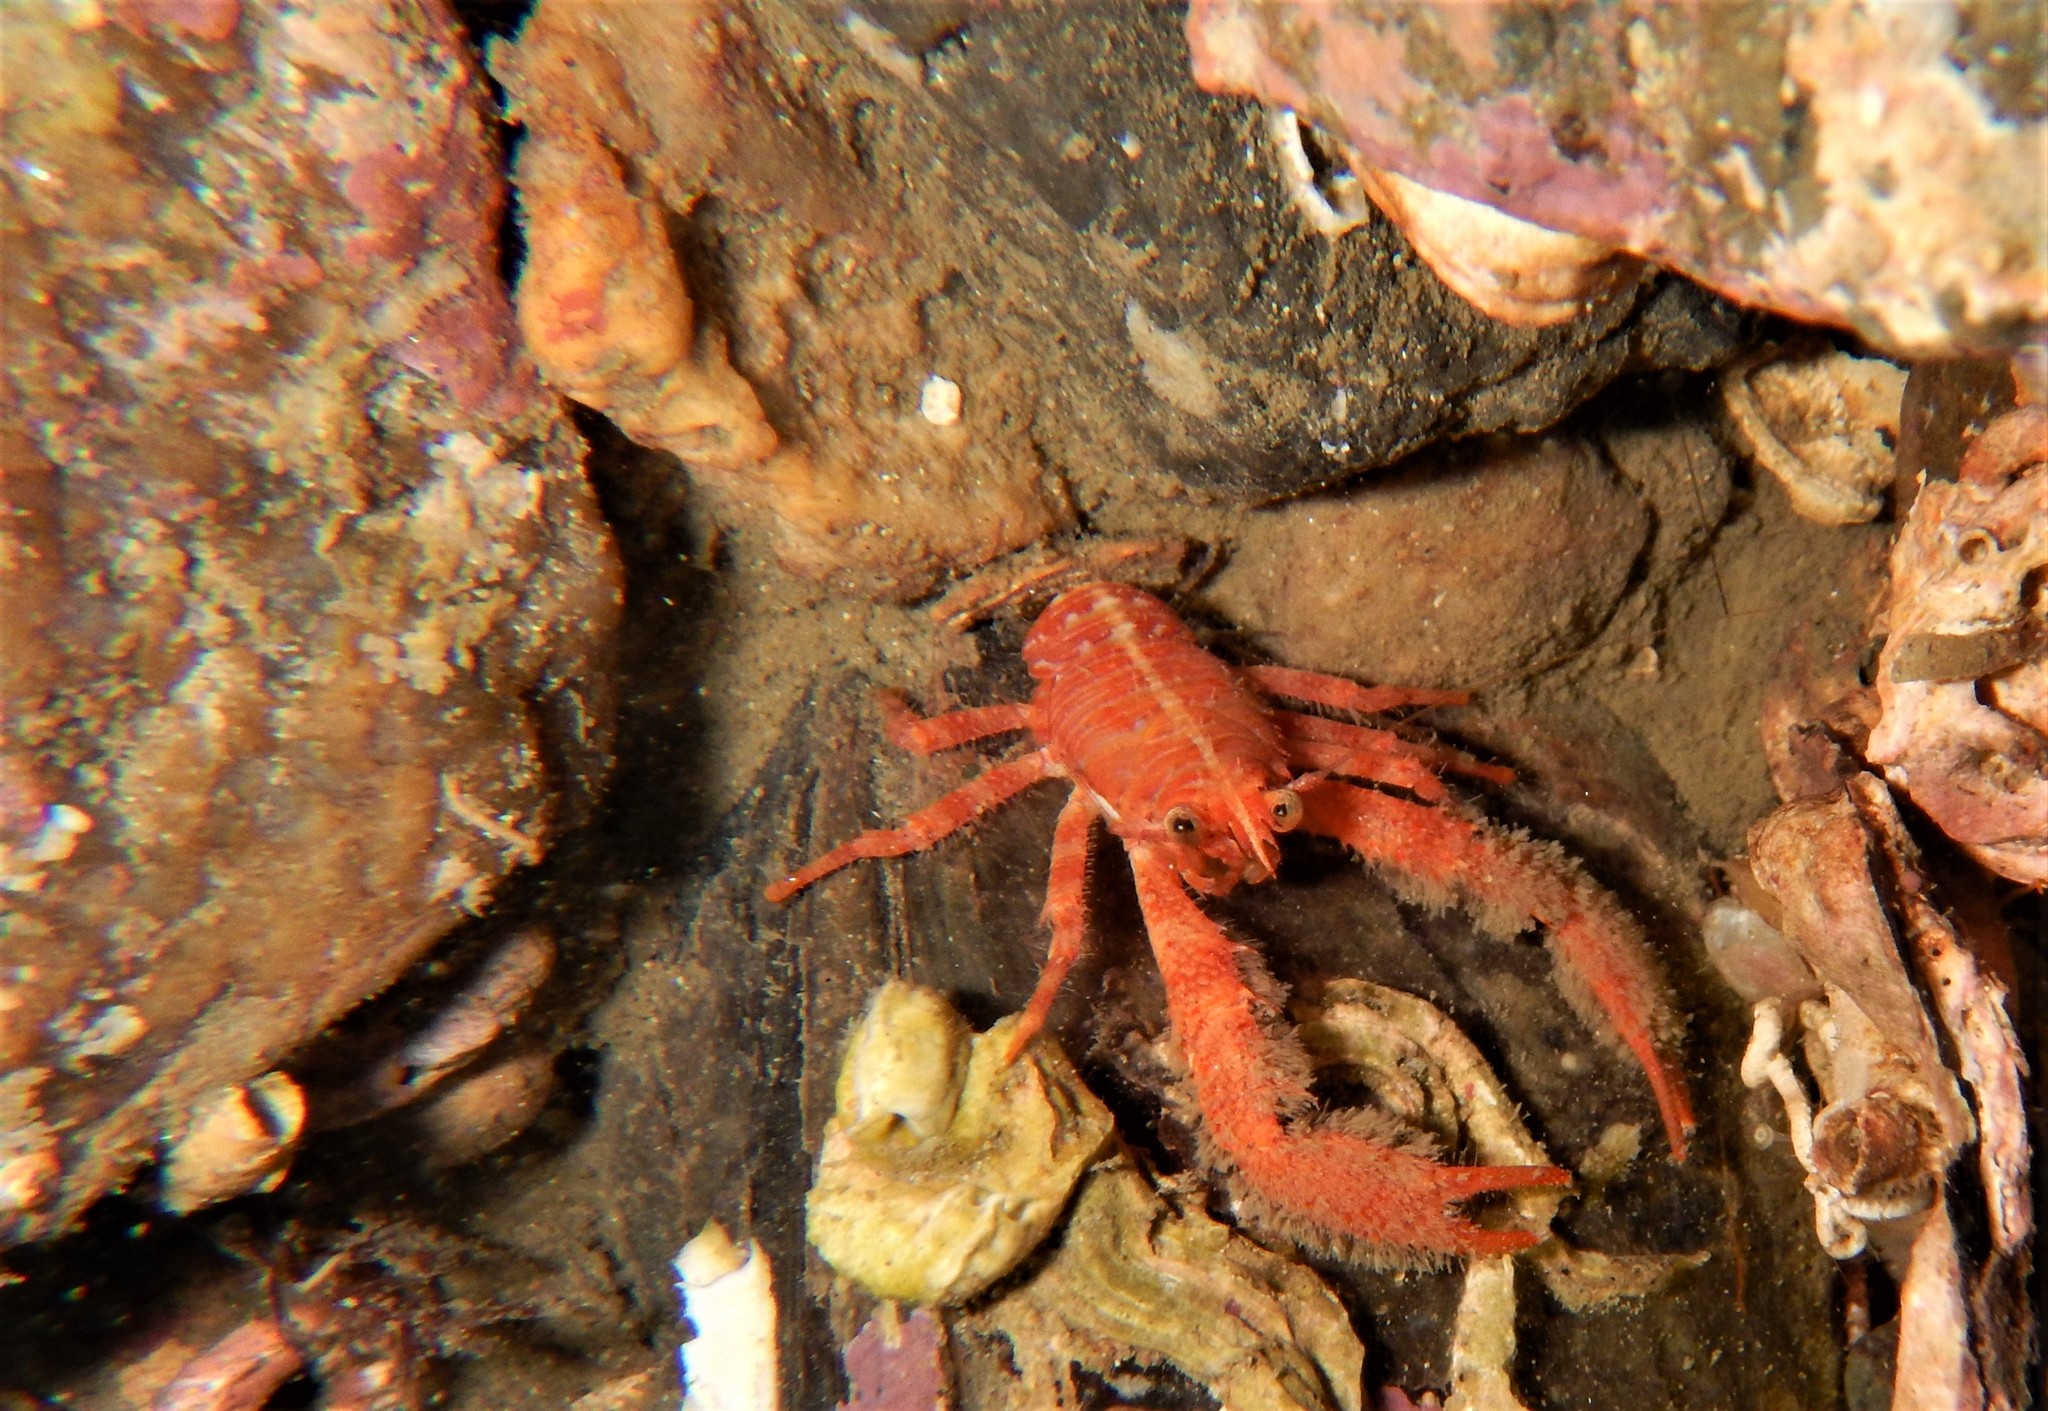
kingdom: Animalia
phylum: Arthropoda
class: Malacostraca
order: Decapoda
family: Galatheidae
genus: Galathea
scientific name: Galathea nexa
